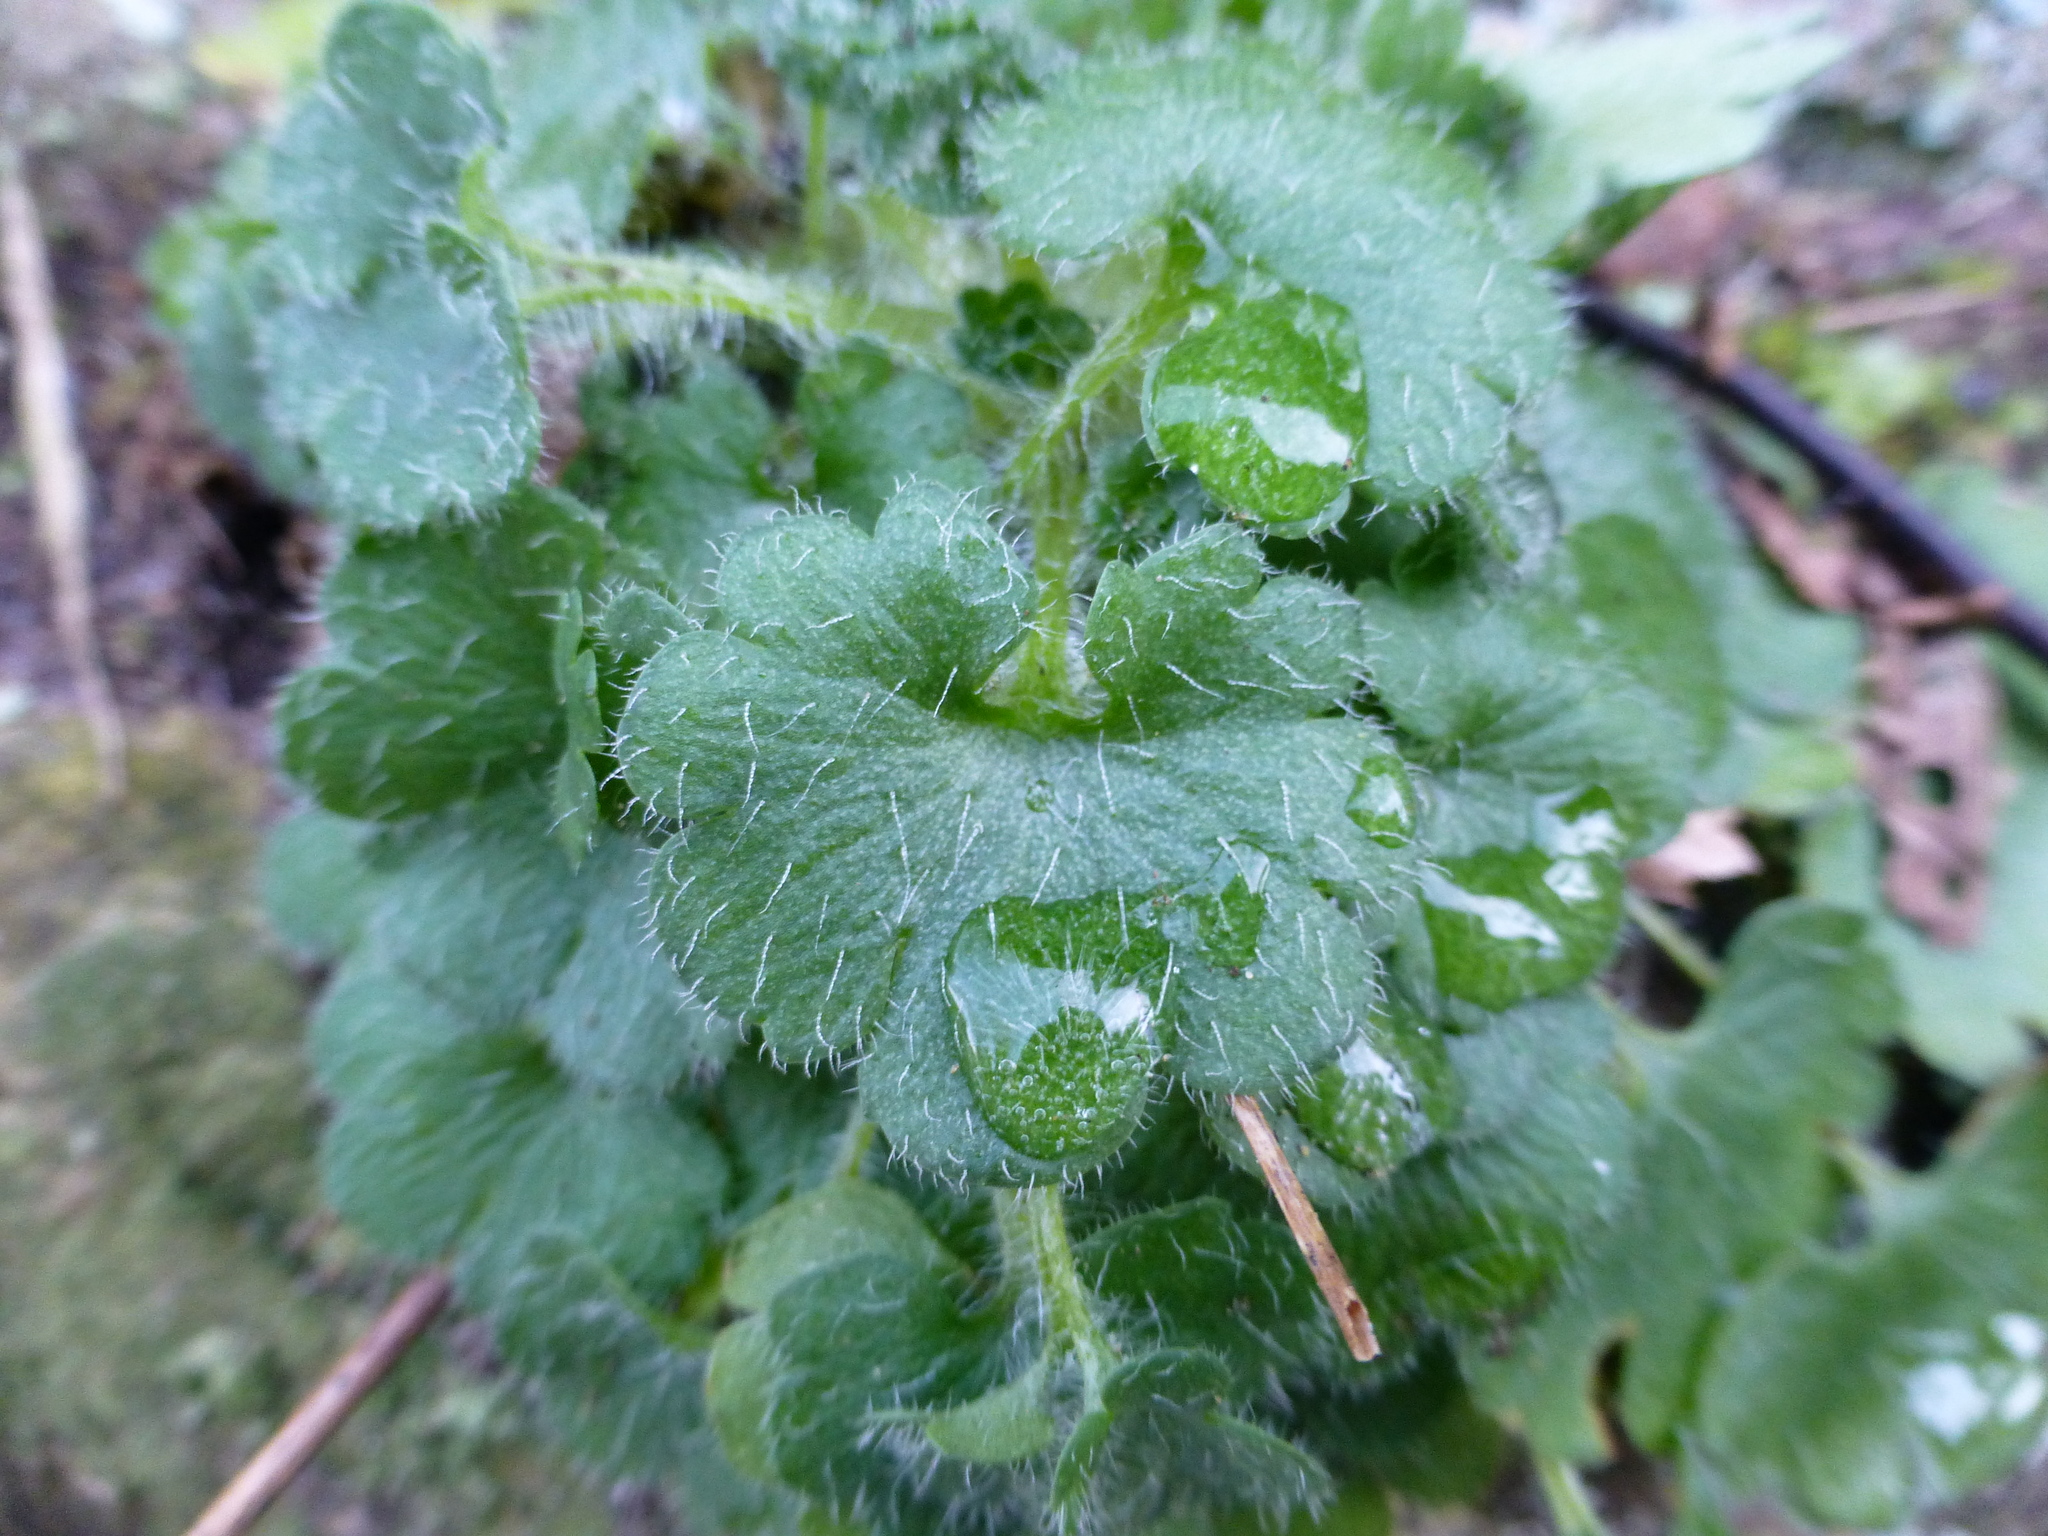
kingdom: Plantae
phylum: Tracheophyta
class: Magnoliopsida
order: Saxifragales
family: Saxifragaceae
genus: Saxifraga
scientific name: Saxifraga granulata
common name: Meadow saxifrage
